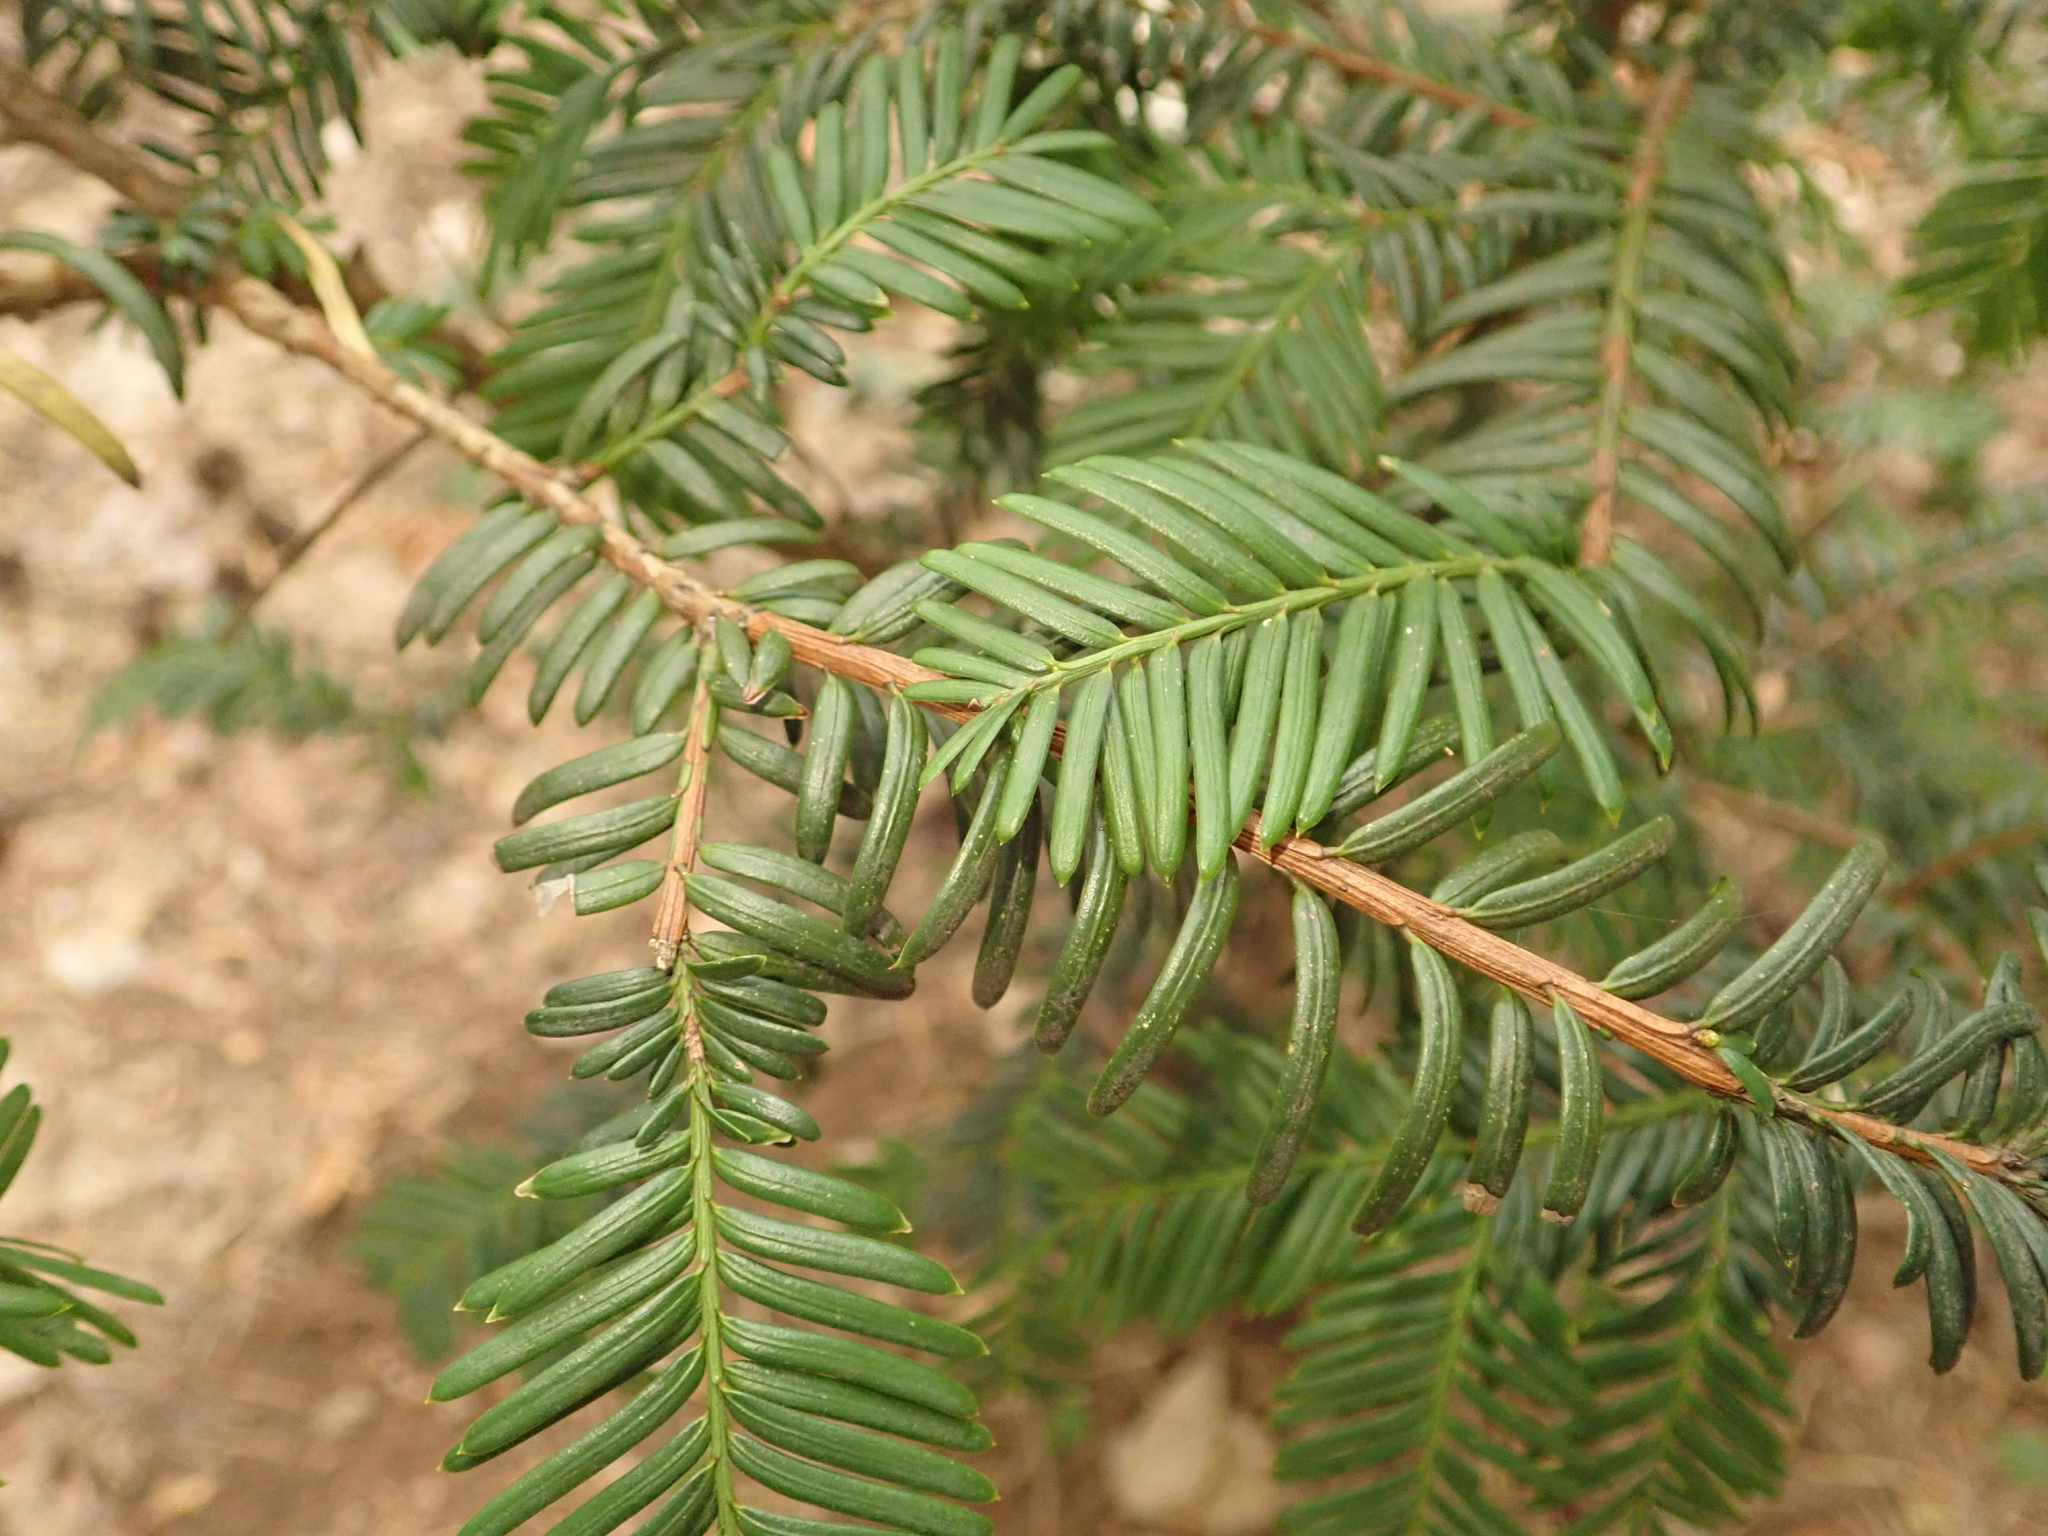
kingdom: Plantae
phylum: Tracheophyta
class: Pinopsida
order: Pinales
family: Taxaceae
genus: Taxus
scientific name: Taxus baccata
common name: Yew
